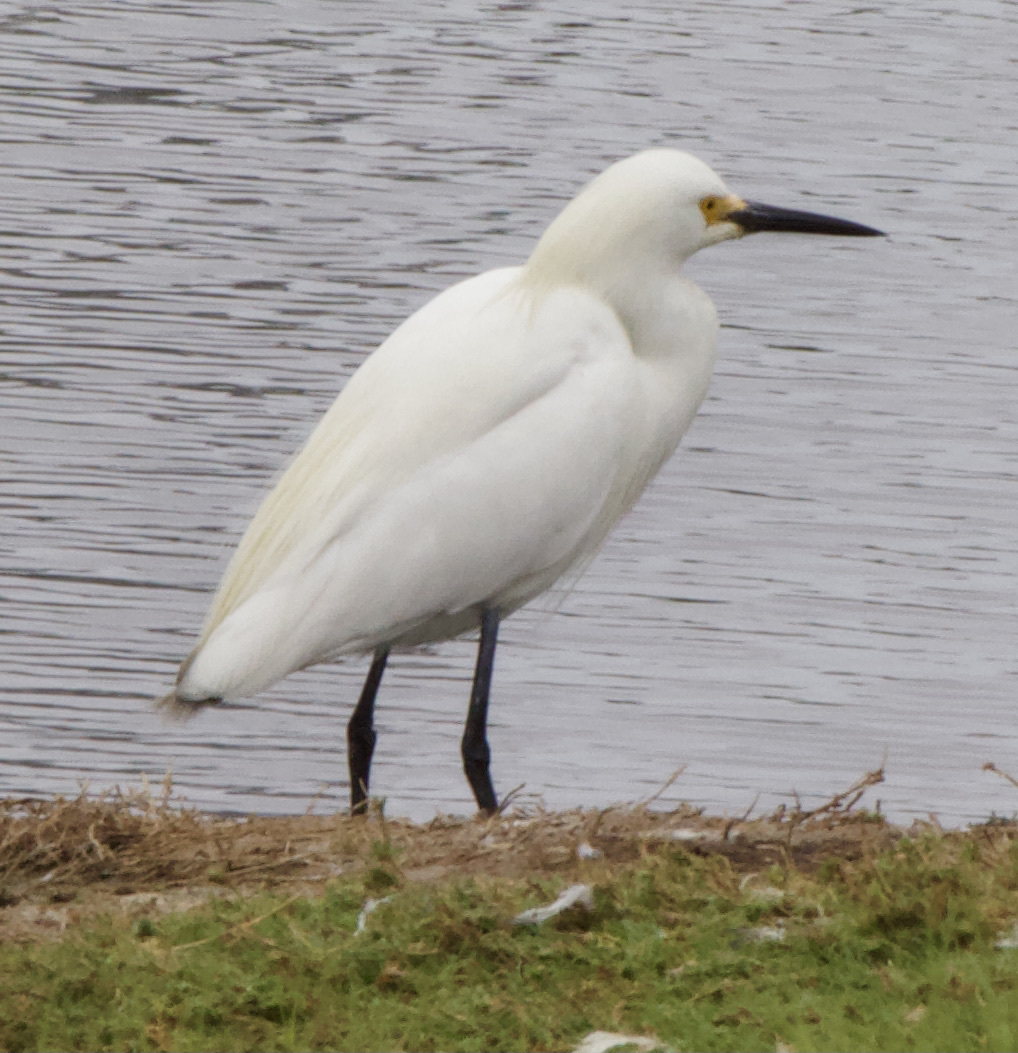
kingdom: Animalia
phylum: Chordata
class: Aves
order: Pelecaniformes
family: Ardeidae
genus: Egretta
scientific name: Egretta thula
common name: Snowy egret
